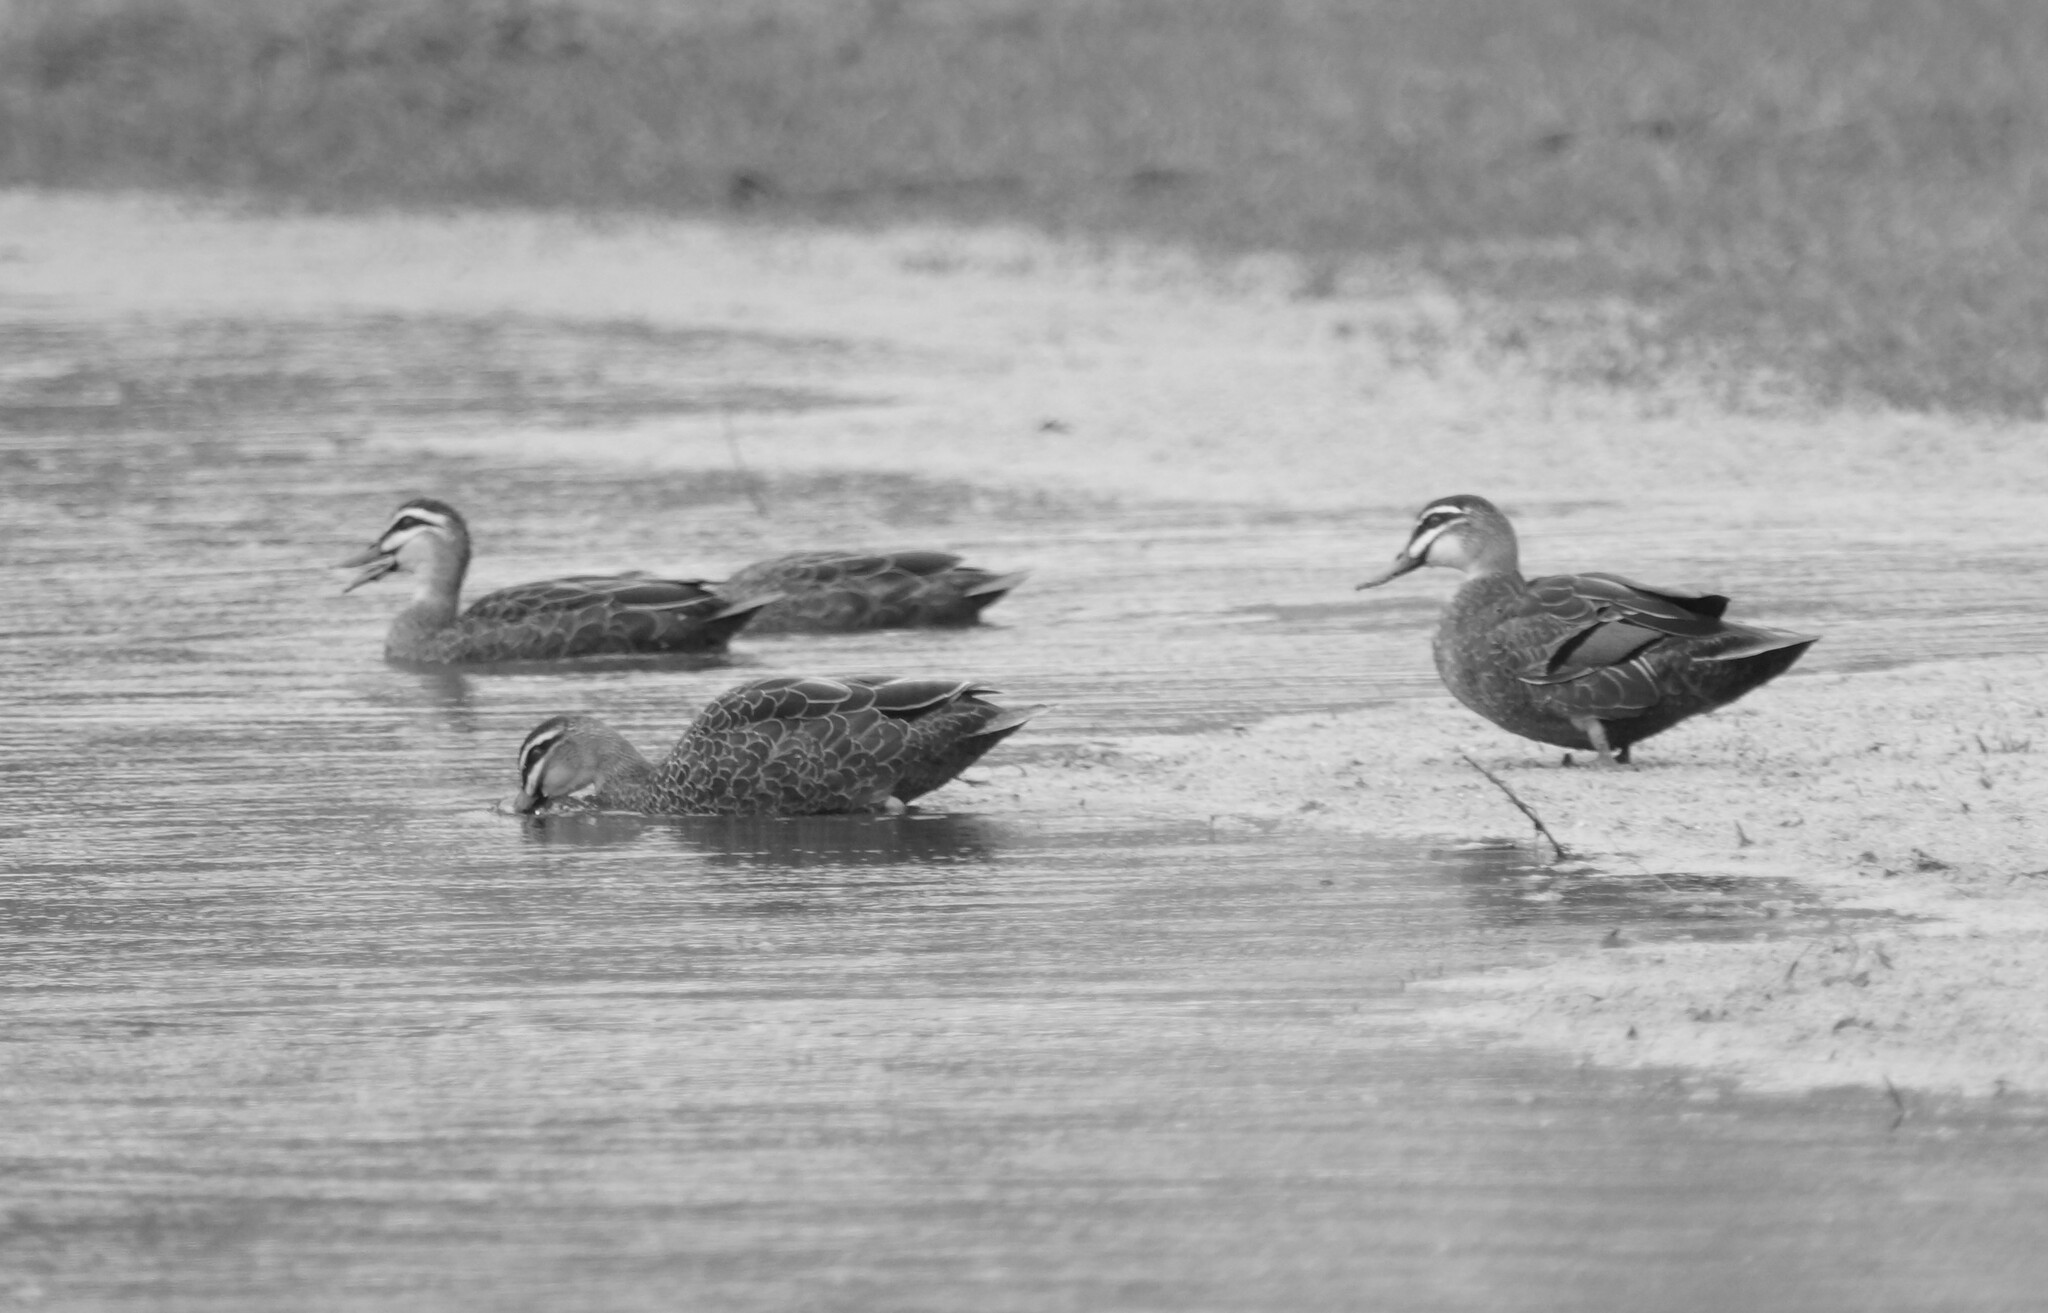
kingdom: Animalia
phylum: Chordata
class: Aves
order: Anseriformes
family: Anatidae
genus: Anas
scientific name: Anas superciliosa
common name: Pacific black duck
